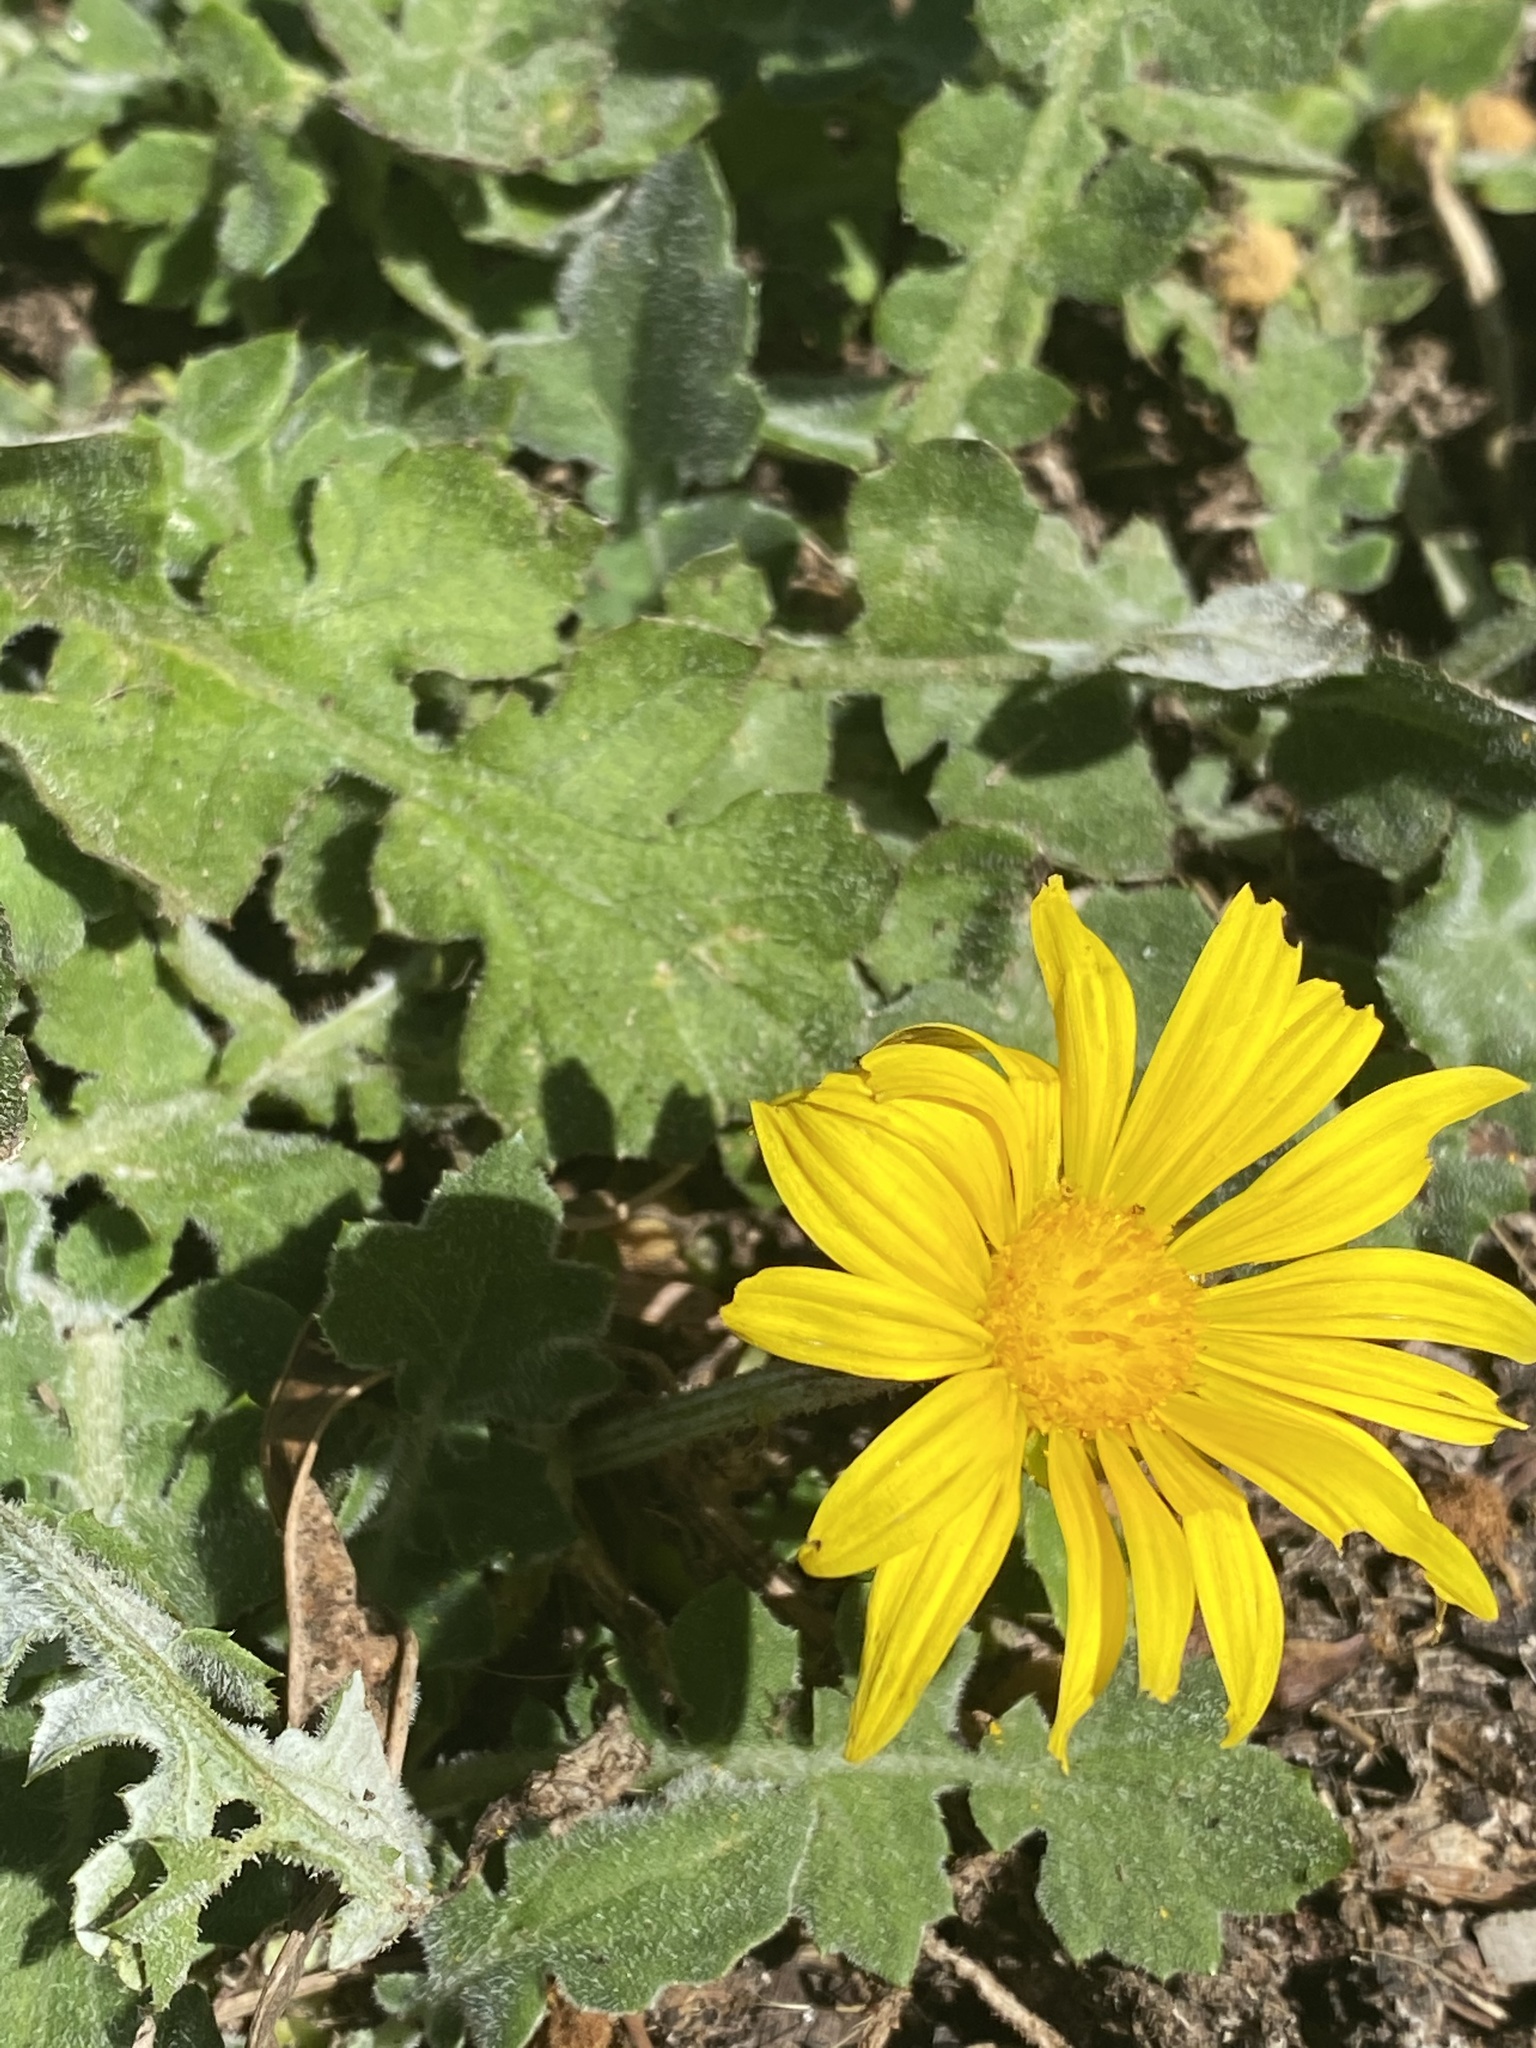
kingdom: Plantae
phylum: Tracheophyta
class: Magnoliopsida
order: Asterales
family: Asteraceae
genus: Arctotheca
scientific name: Arctotheca prostrata
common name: Capeweed
